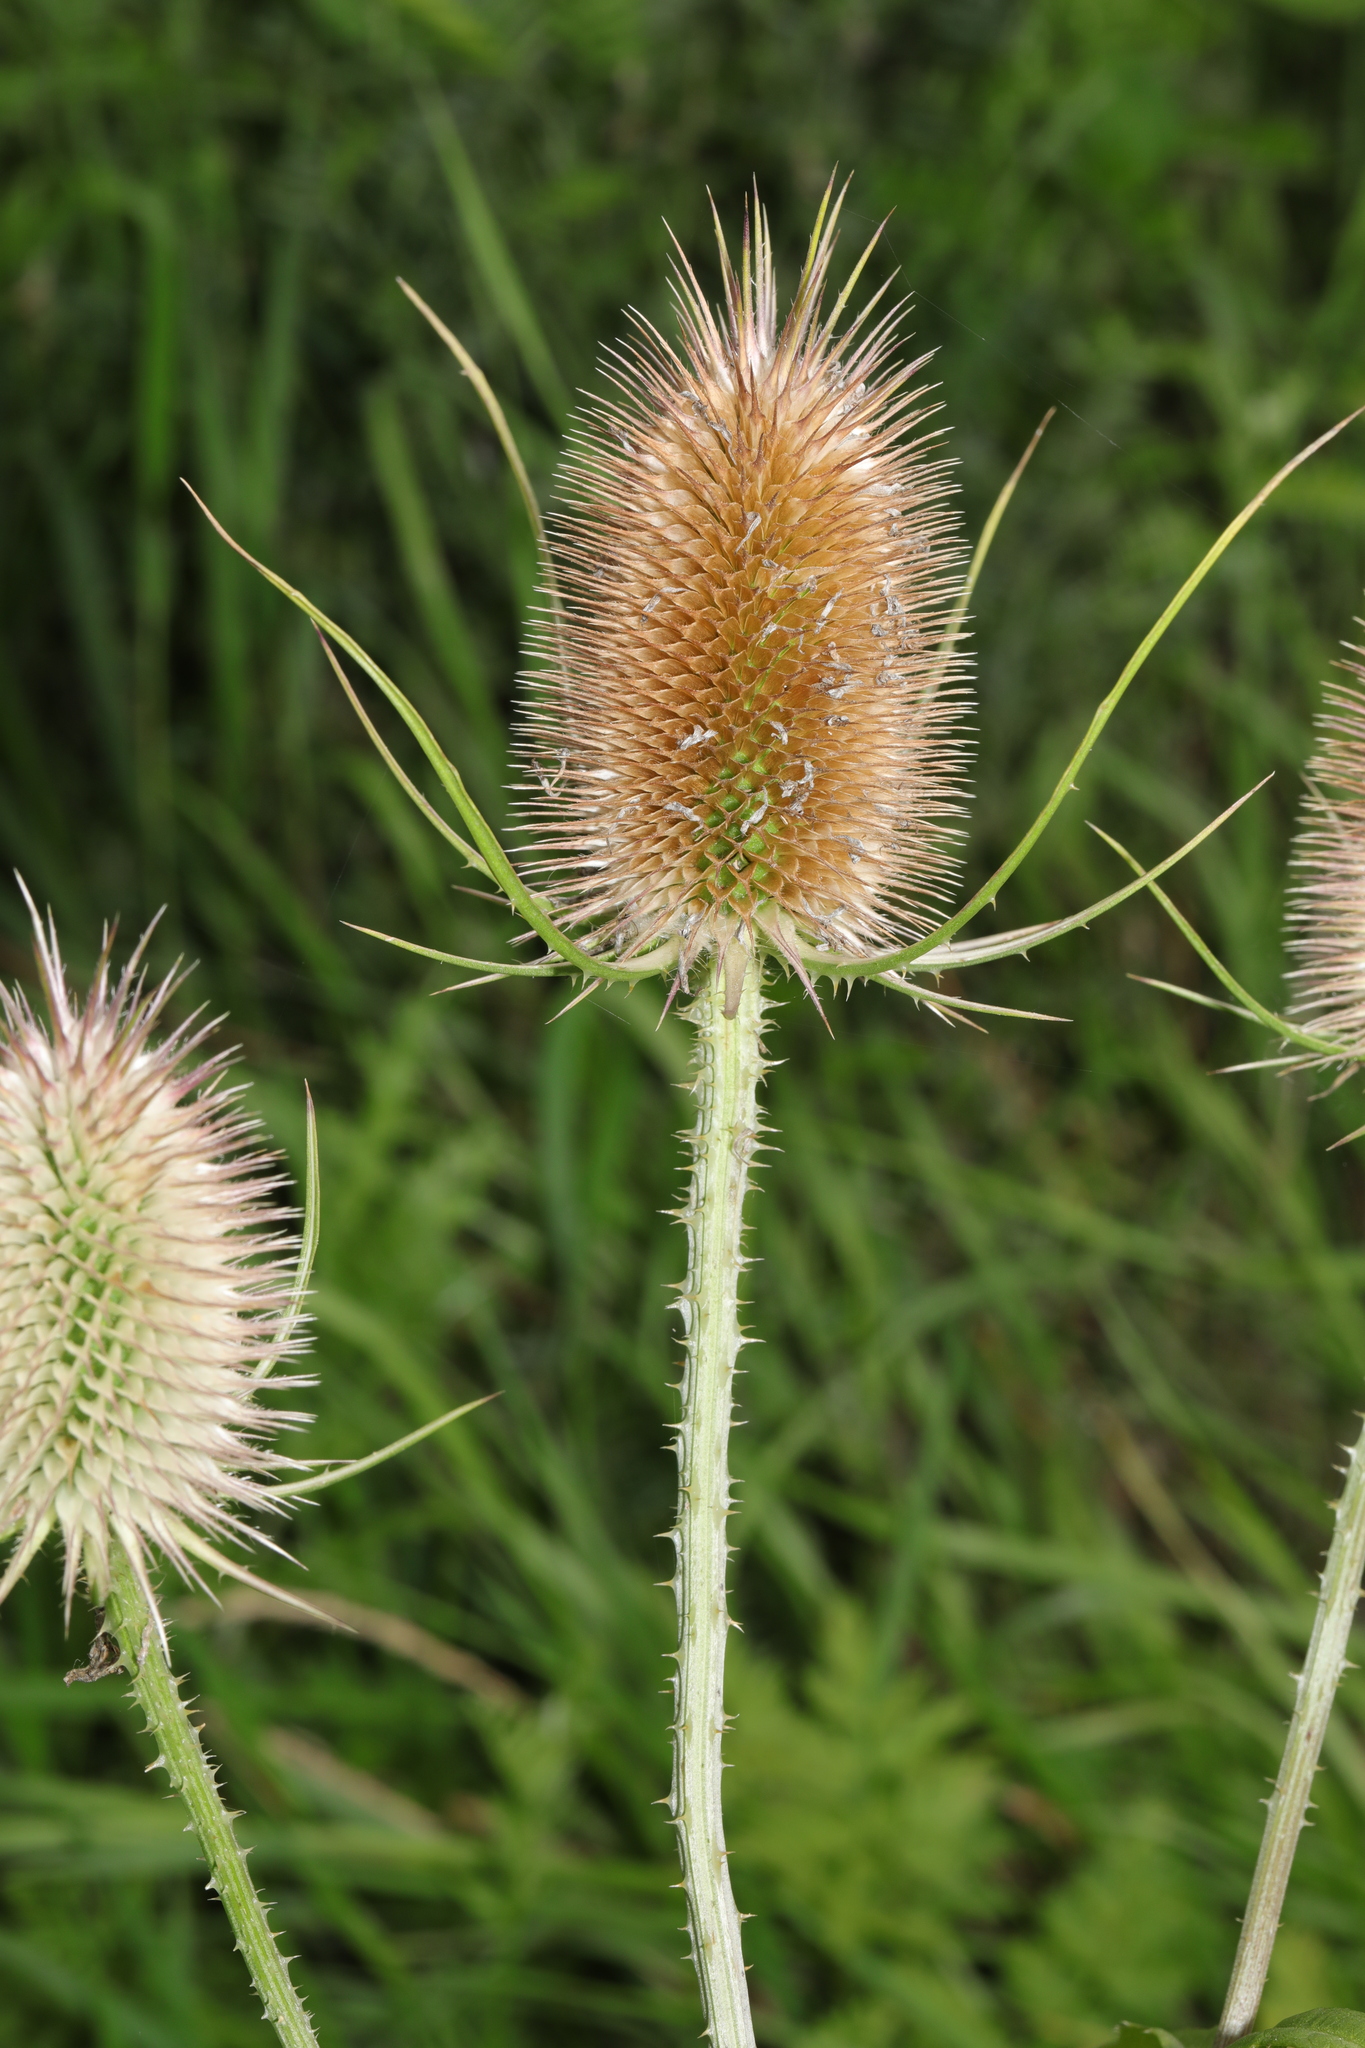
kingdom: Plantae
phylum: Tracheophyta
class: Magnoliopsida
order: Dipsacales
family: Caprifoliaceae
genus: Dipsacus
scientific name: Dipsacus fullonum
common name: Teasel
